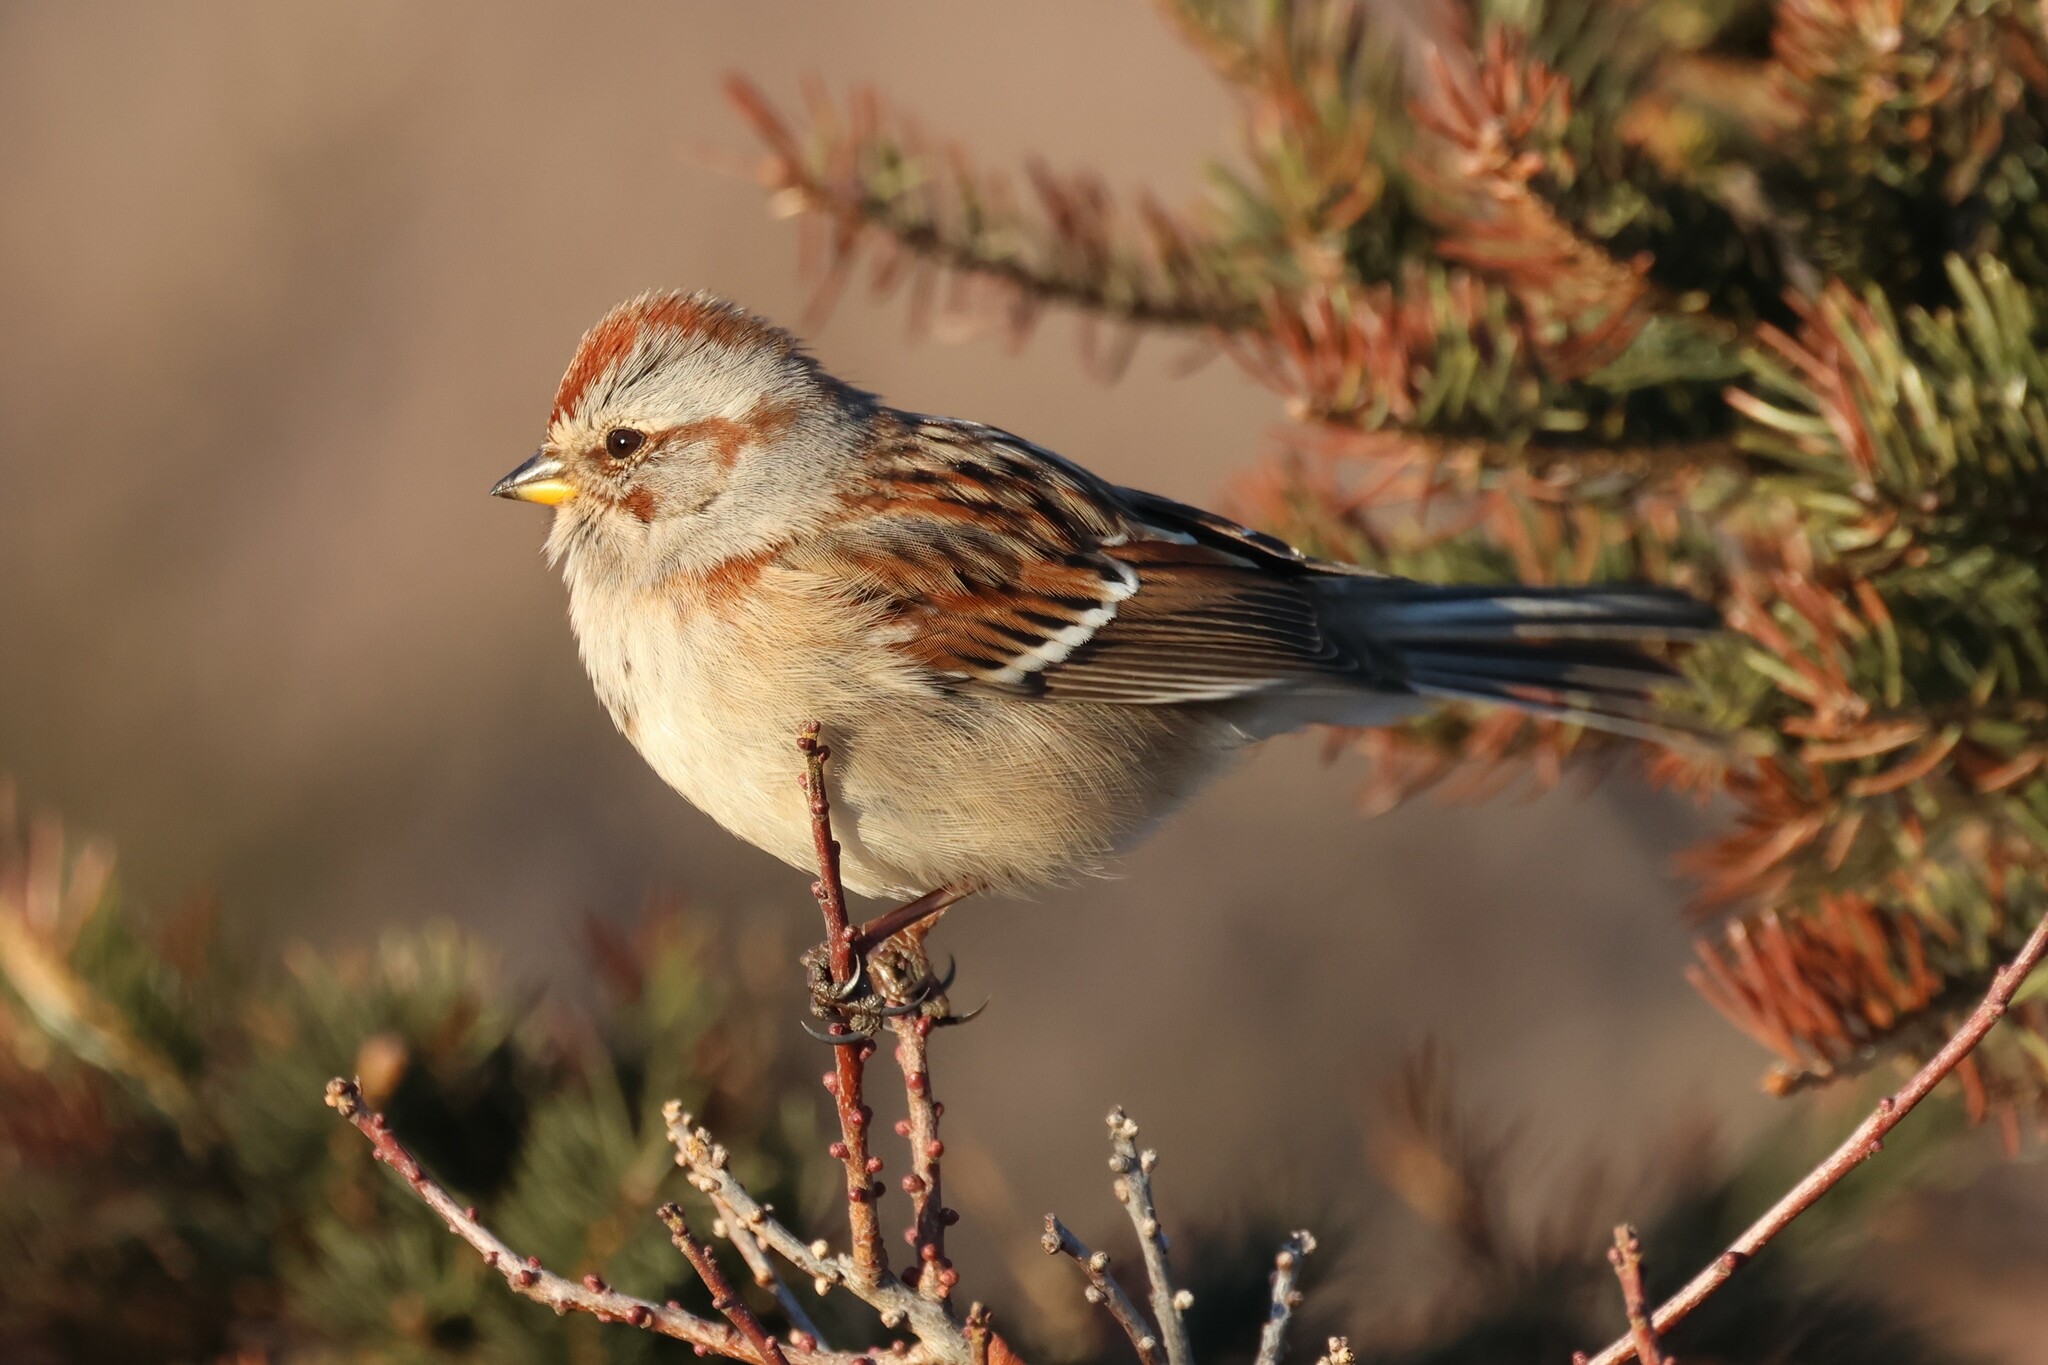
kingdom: Animalia
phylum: Chordata
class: Aves
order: Passeriformes
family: Passerellidae
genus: Spizelloides
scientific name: Spizelloides arborea
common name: American tree sparrow
